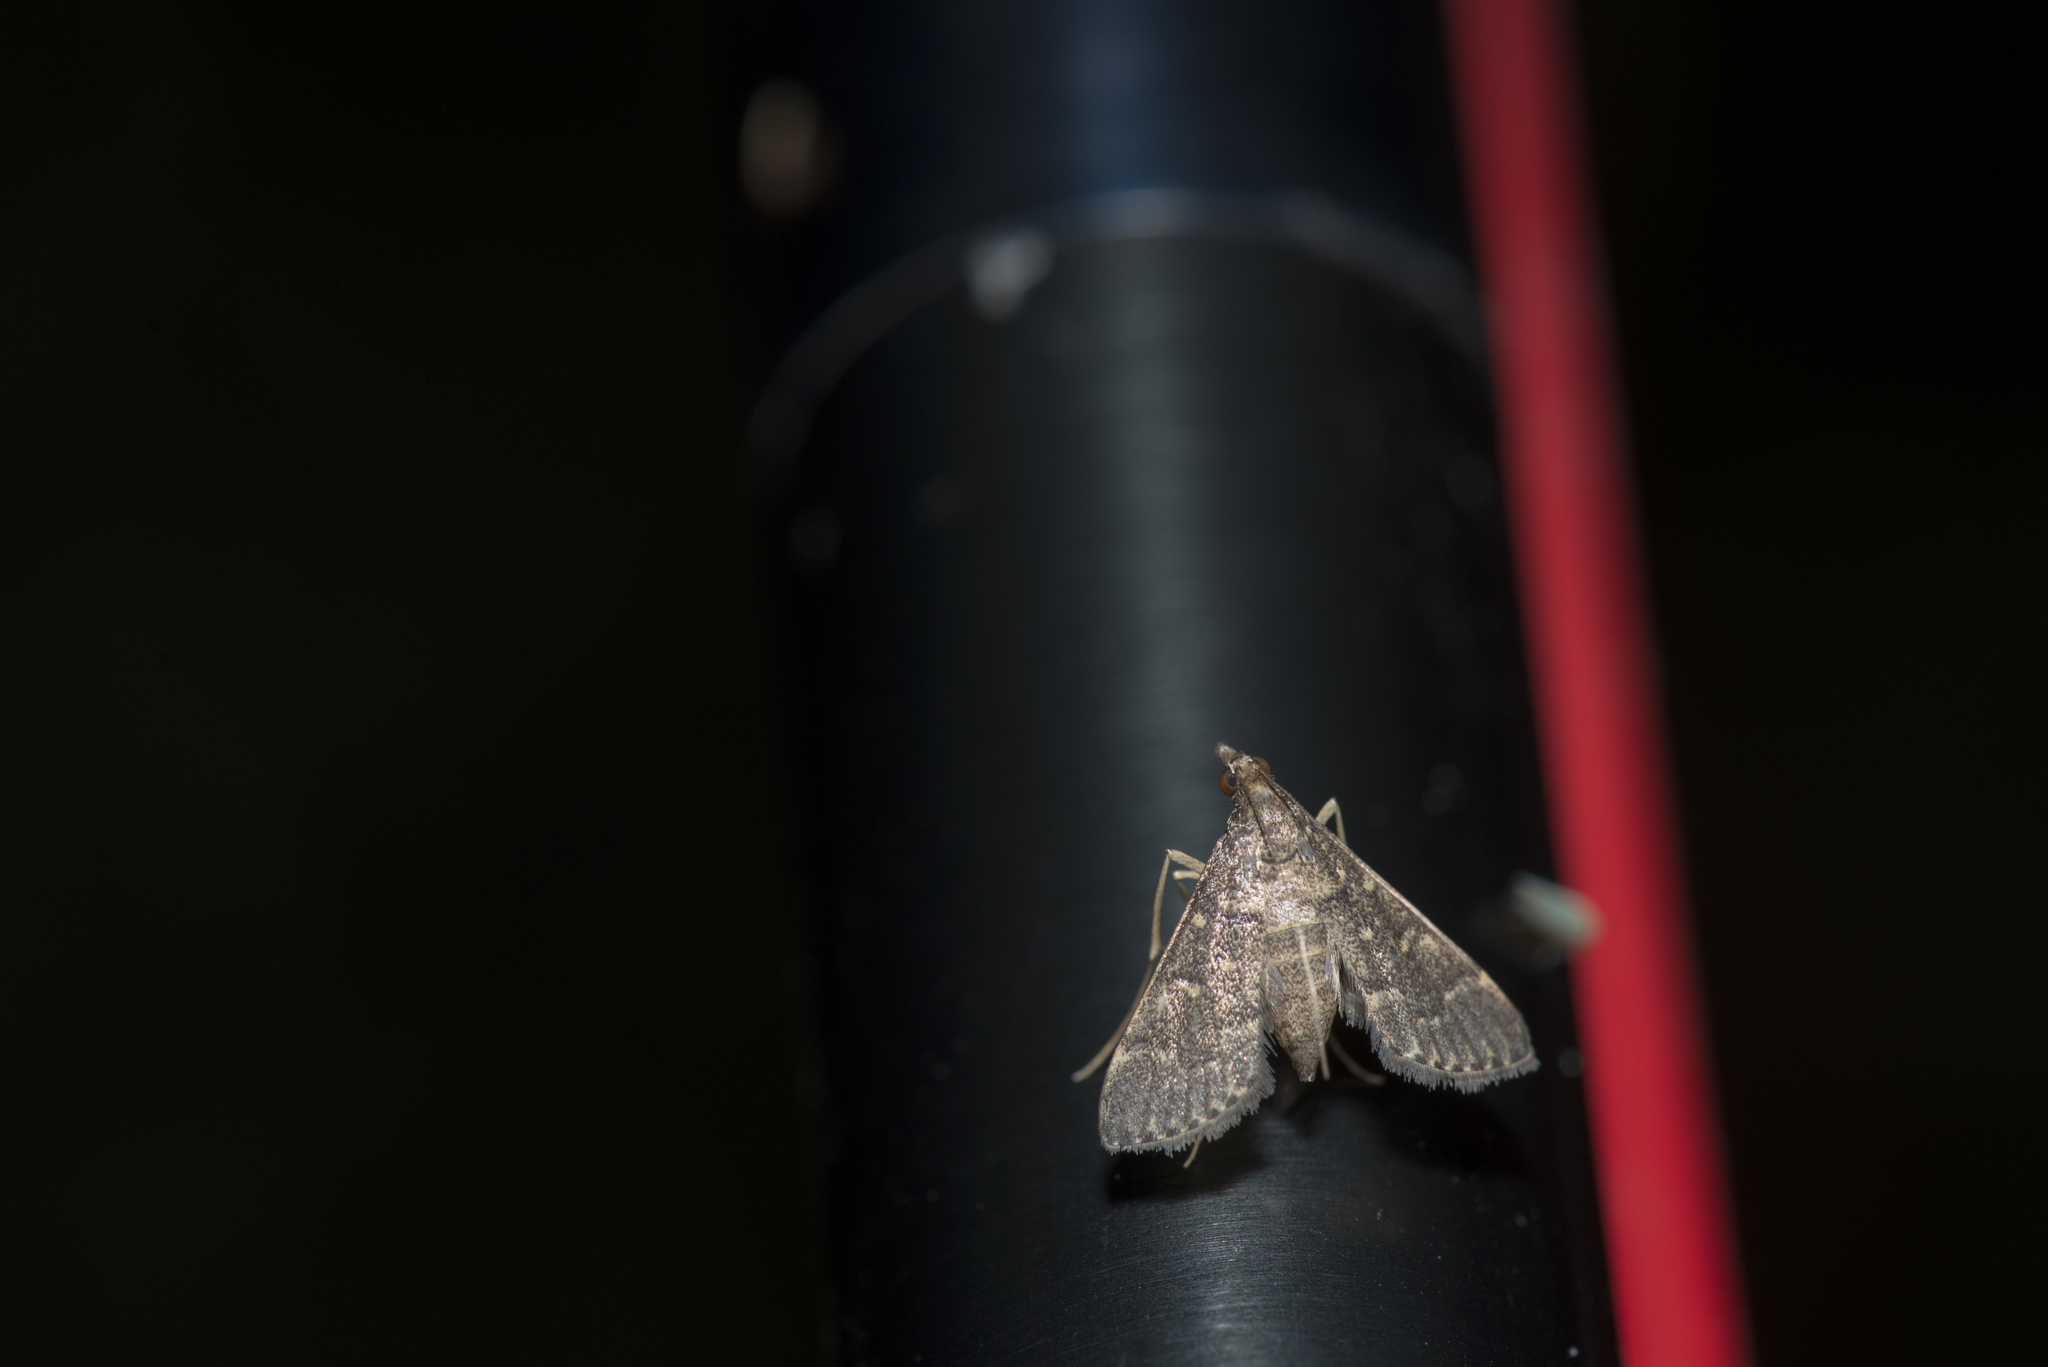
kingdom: Animalia
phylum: Arthropoda
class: Insecta
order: Lepidoptera
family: Crambidae
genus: Symmoracma
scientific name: Symmoracma minoralis
